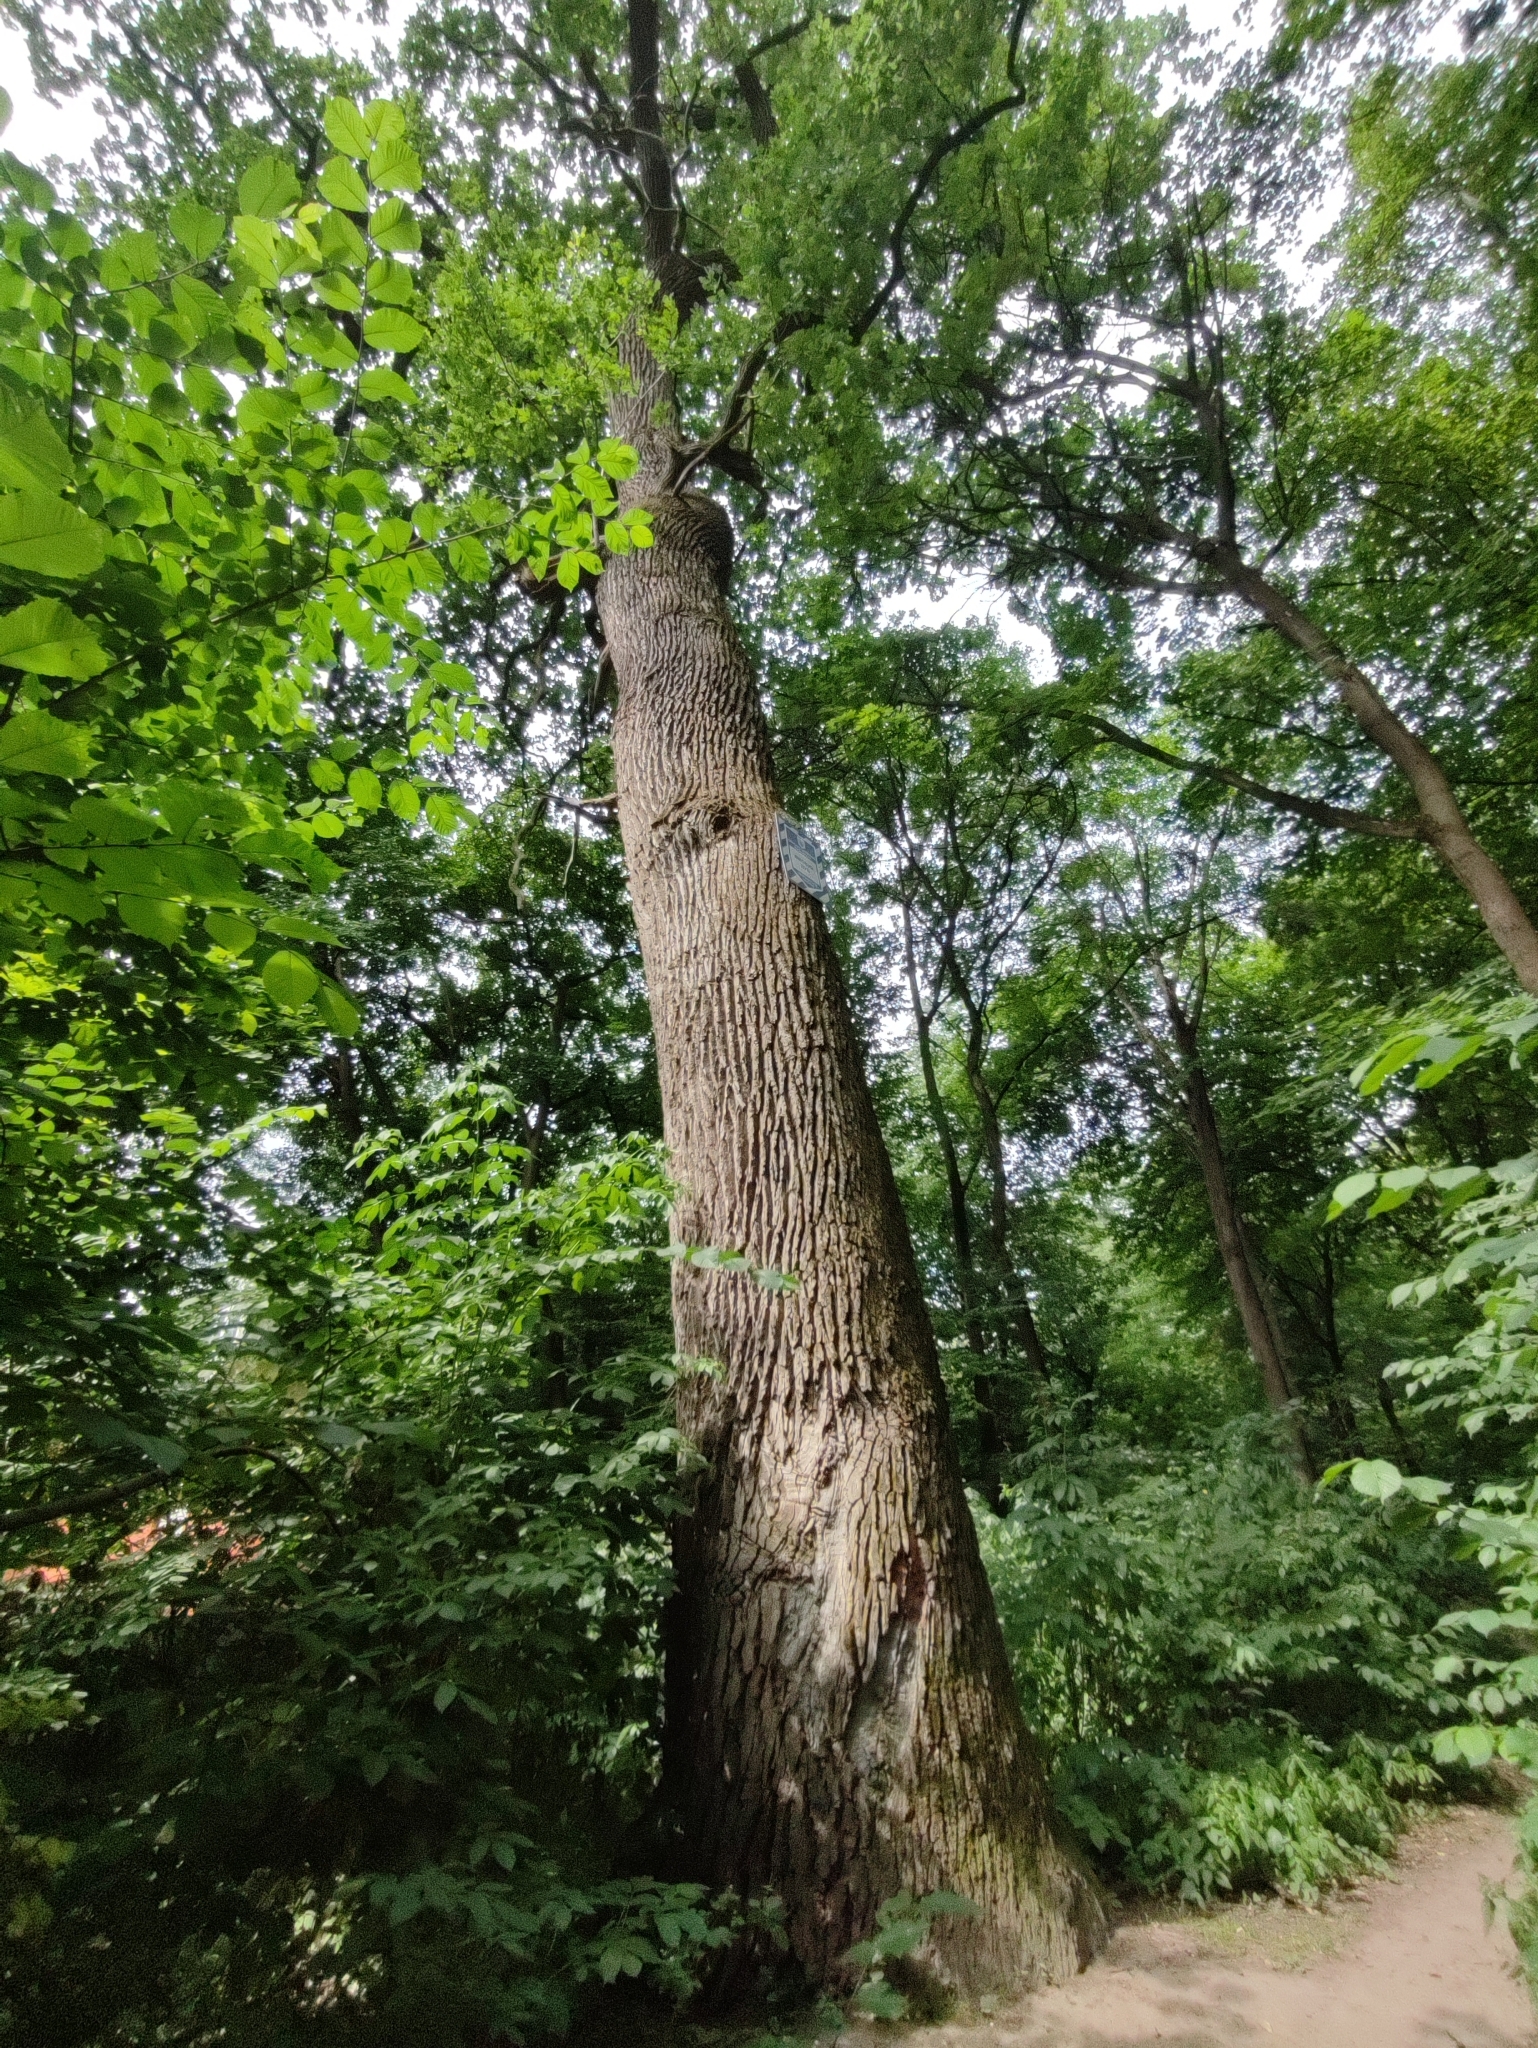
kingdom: Plantae
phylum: Tracheophyta
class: Magnoliopsida
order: Fagales
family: Fagaceae
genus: Quercus
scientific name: Quercus robur
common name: Pedunculate oak
